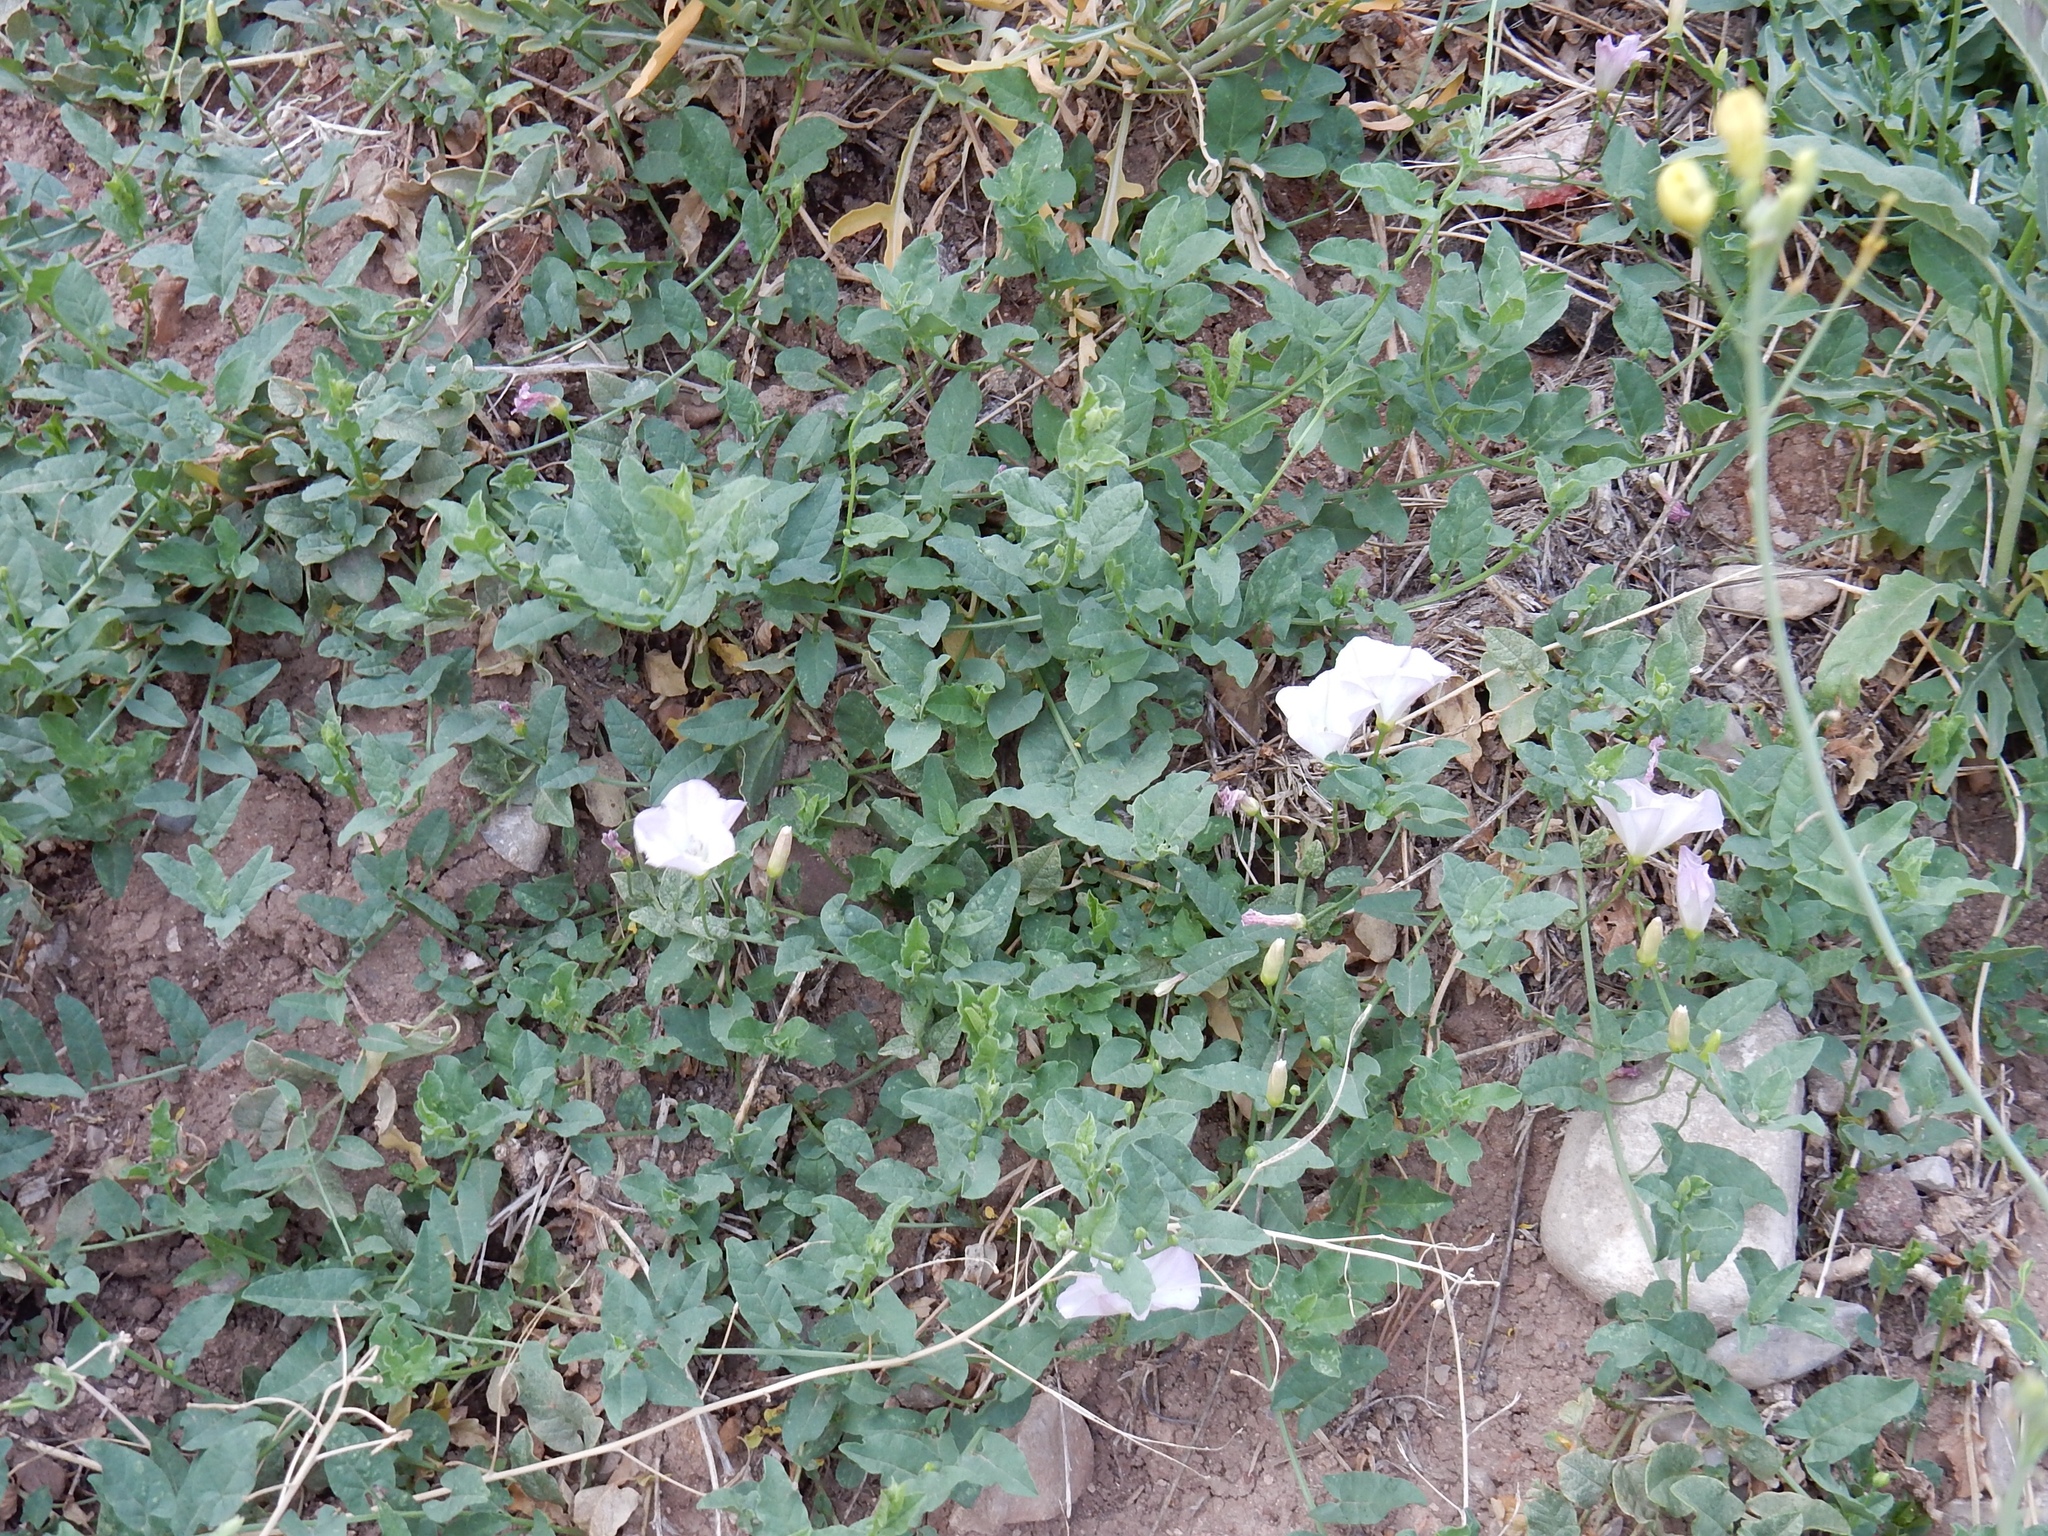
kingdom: Plantae
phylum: Tracheophyta
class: Magnoliopsida
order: Solanales
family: Convolvulaceae
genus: Convolvulus
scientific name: Convolvulus arvensis
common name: Field bindweed
